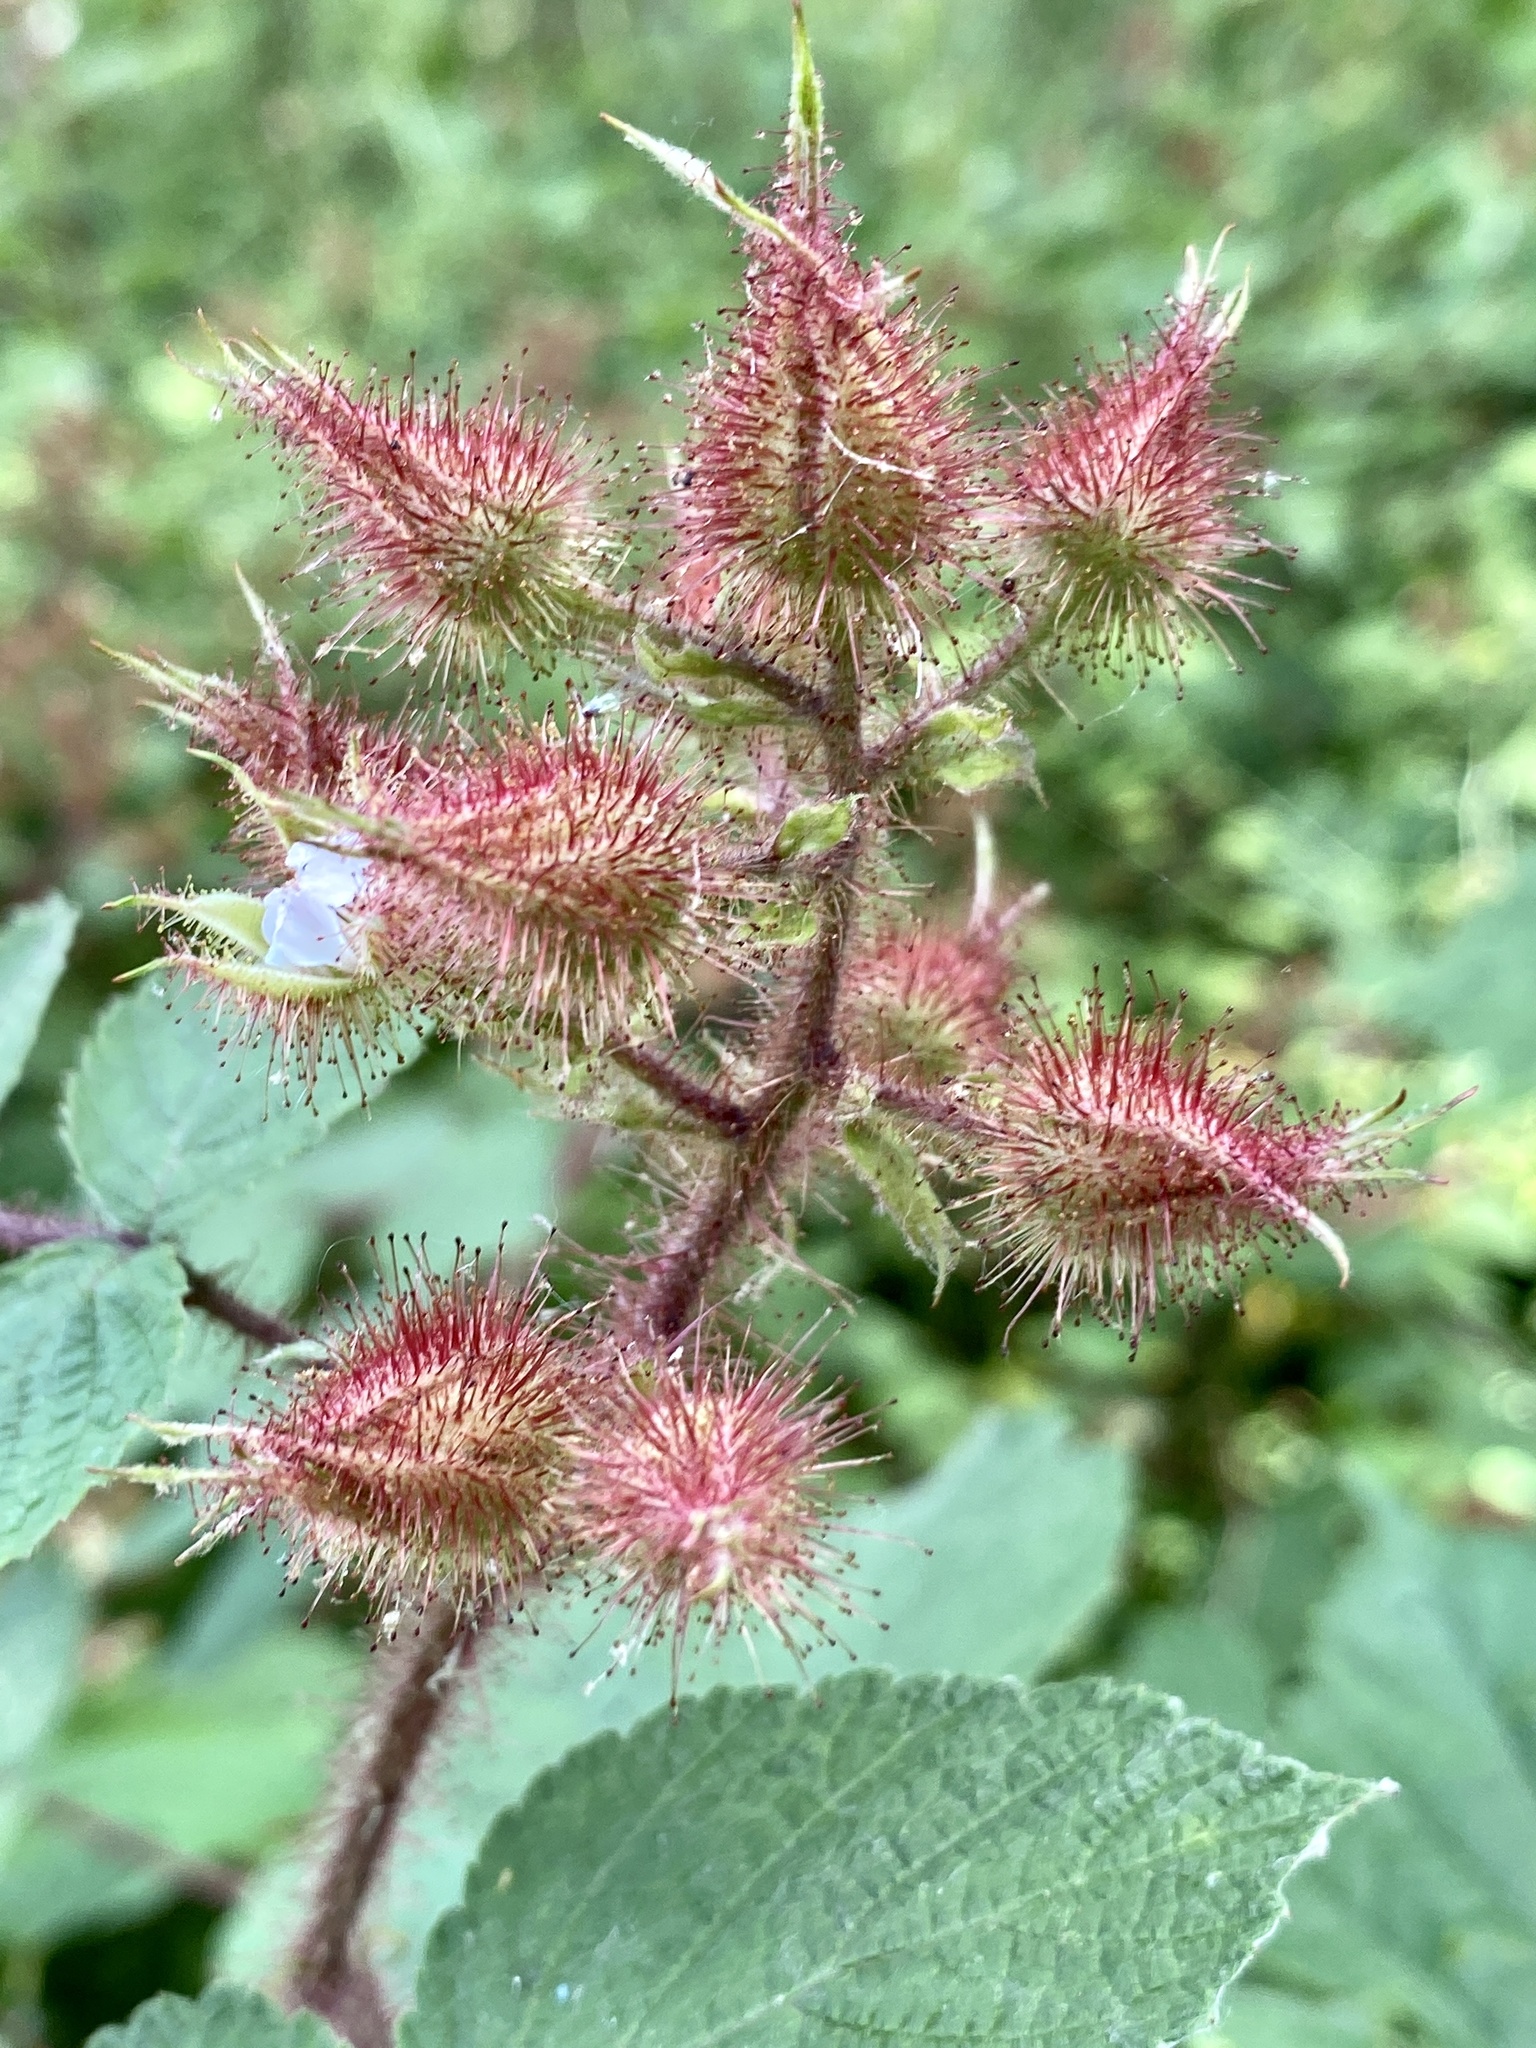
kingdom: Plantae
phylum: Tracheophyta
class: Magnoliopsida
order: Rosales
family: Rosaceae
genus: Rubus
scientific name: Rubus phoenicolasius
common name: Japanese wineberry
